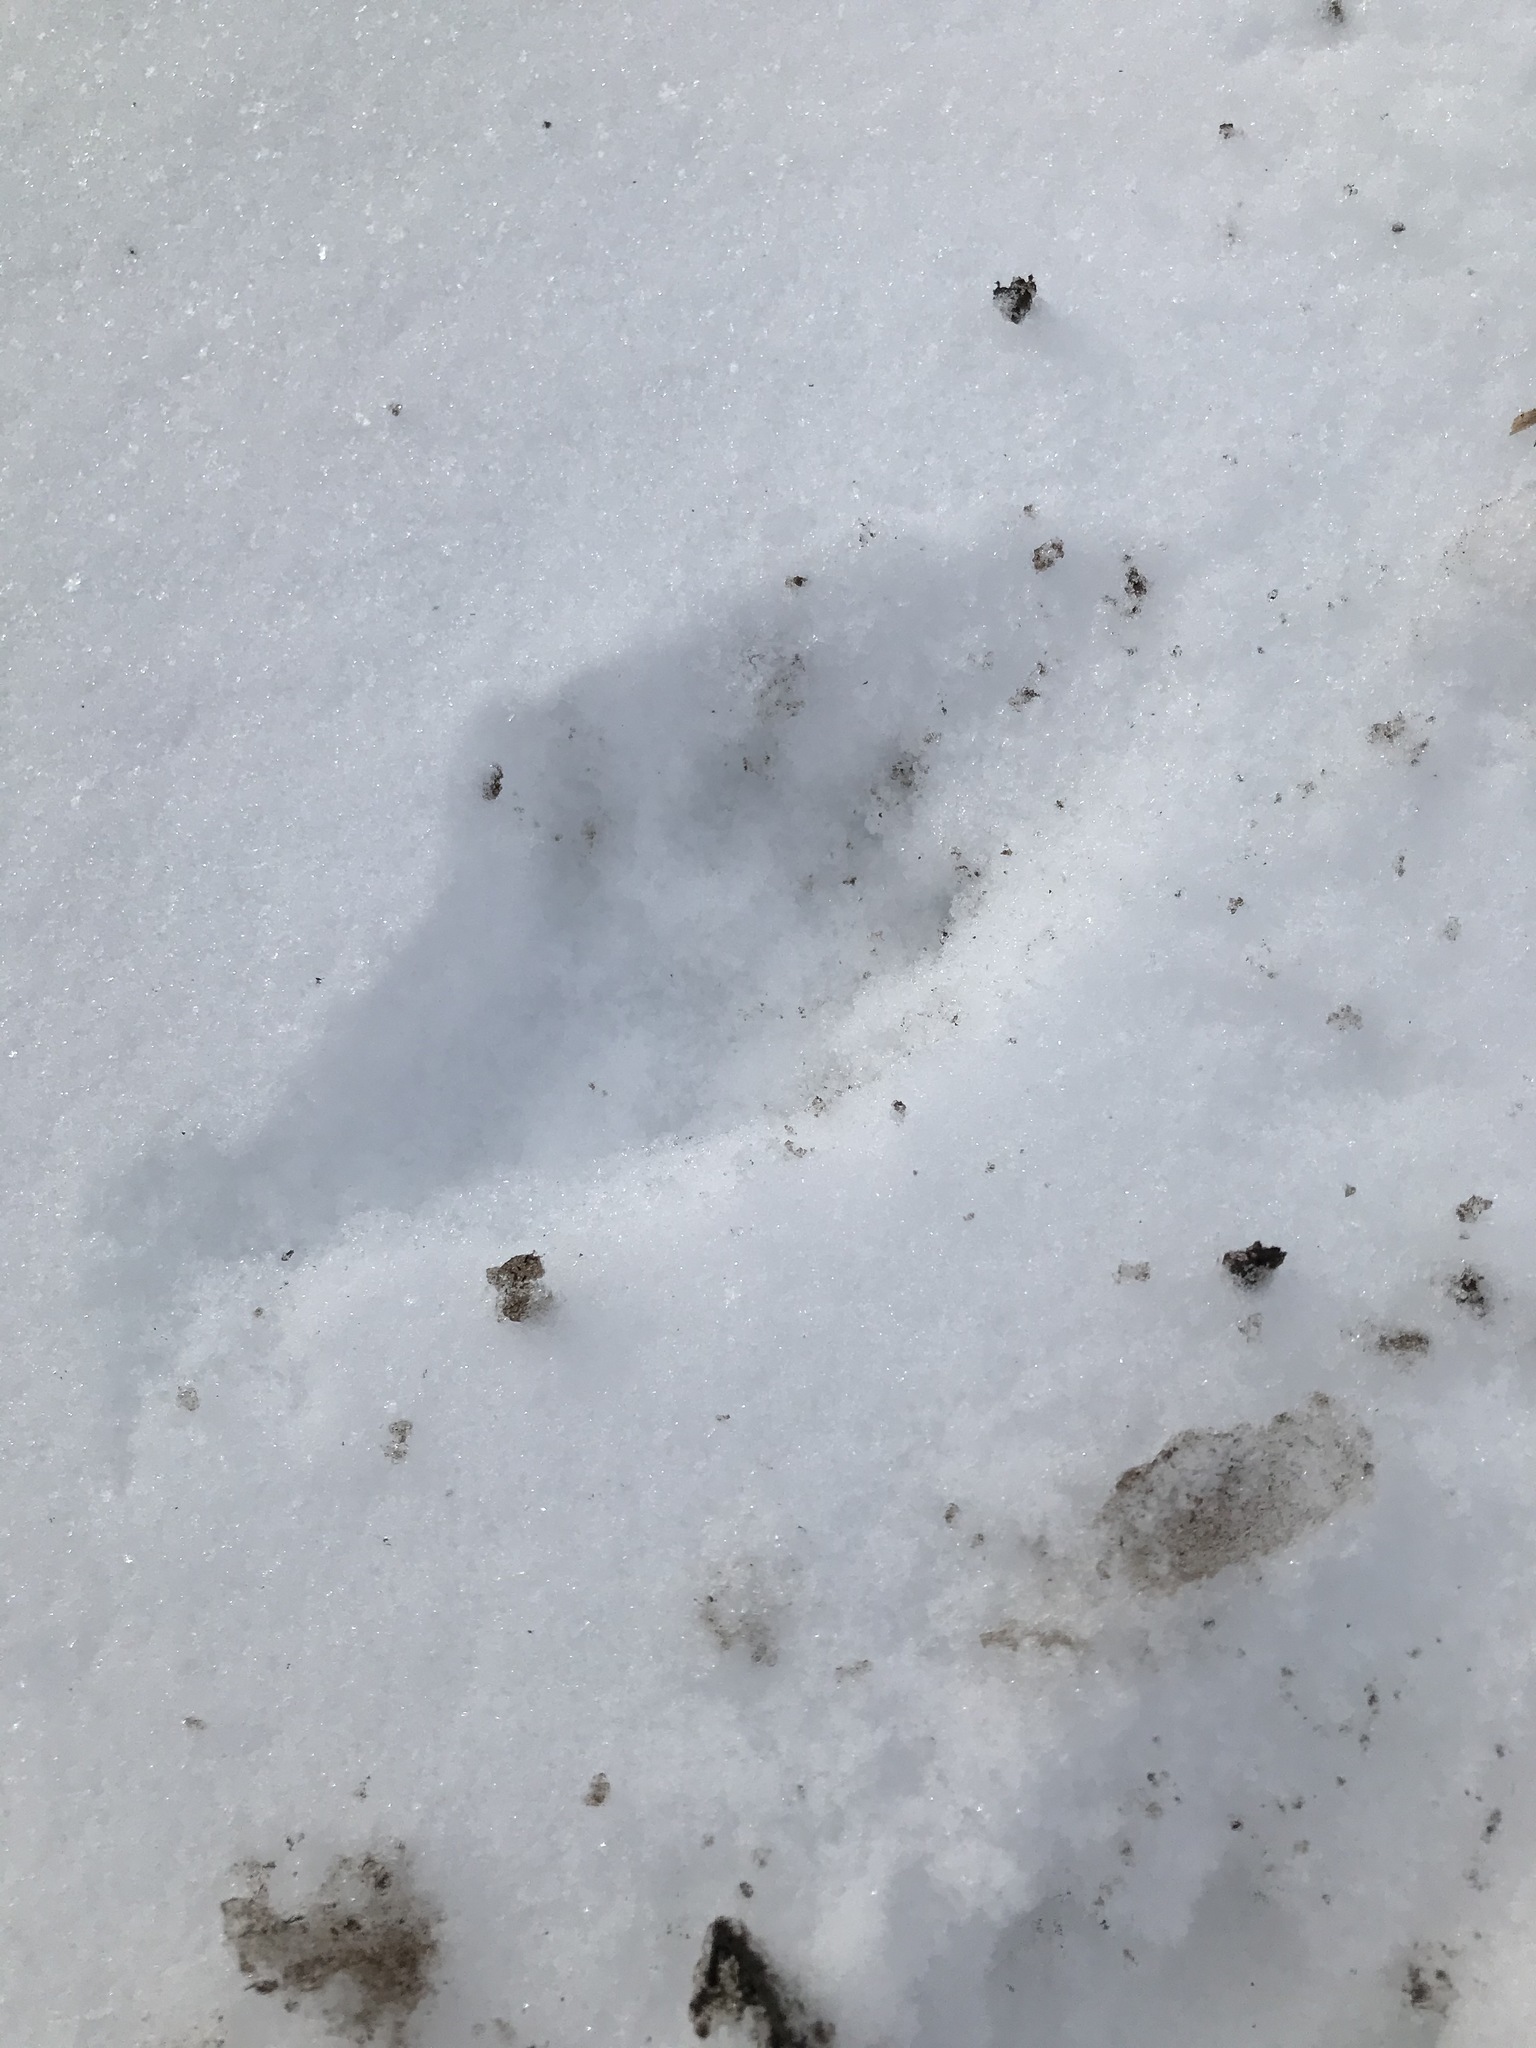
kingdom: Animalia
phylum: Chordata
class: Mammalia
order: Carnivora
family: Mustelidae
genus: Lontra
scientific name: Lontra canadensis
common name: North american river otter
